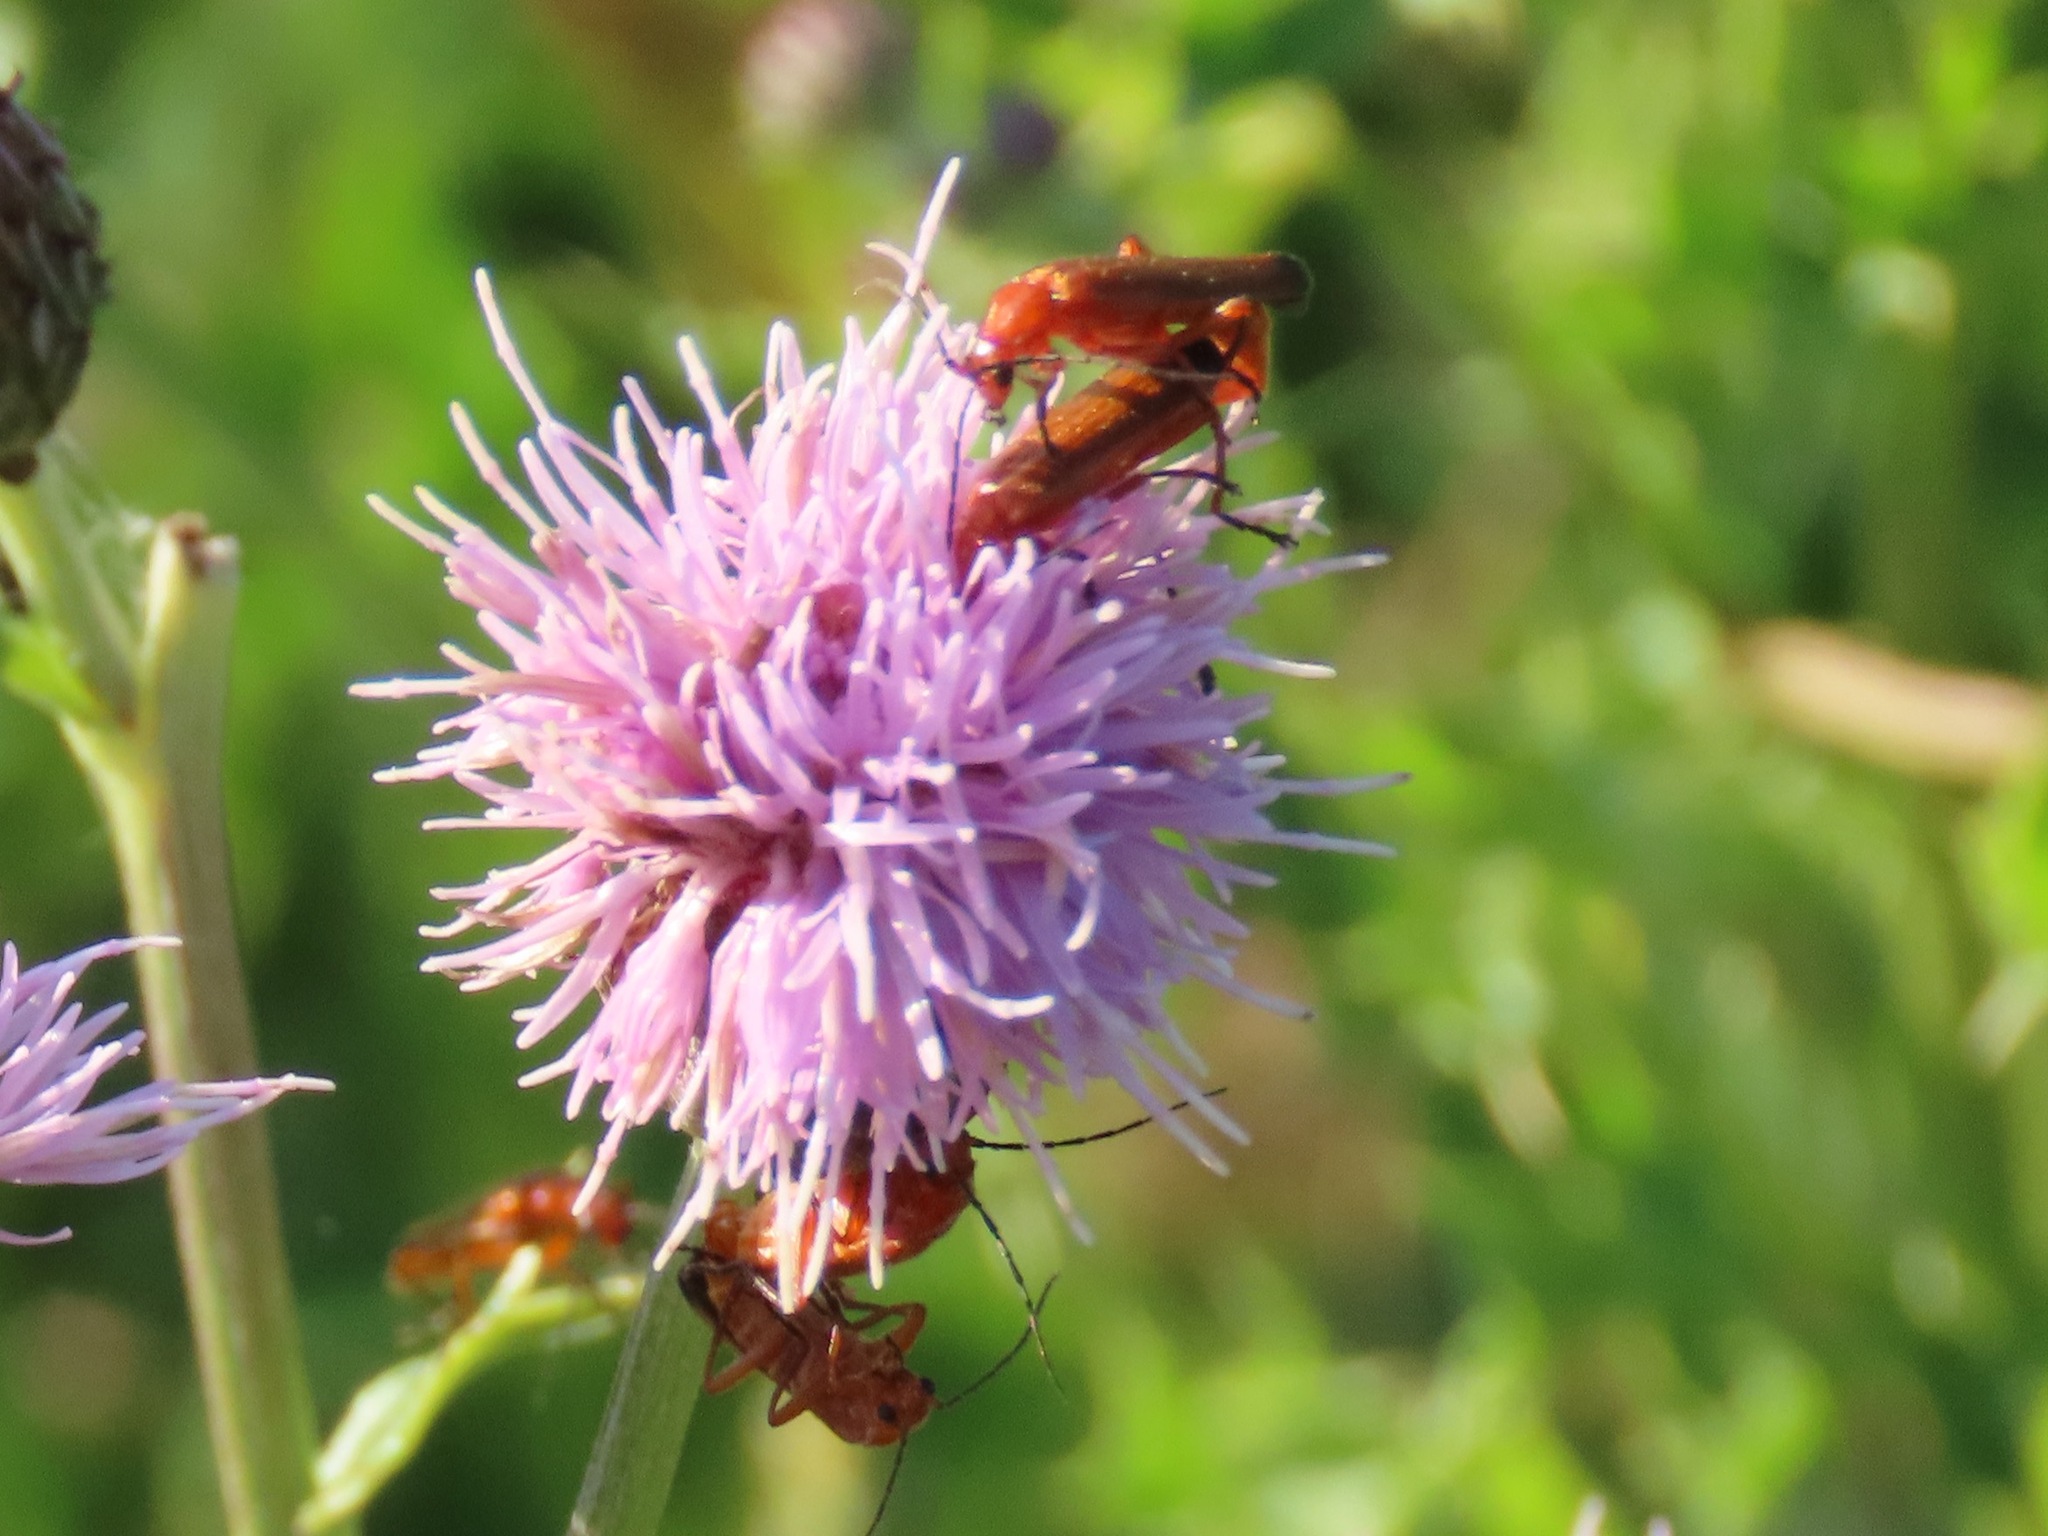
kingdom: Animalia
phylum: Arthropoda
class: Insecta
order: Coleoptera
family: Cantharidae
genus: Rhagonycha
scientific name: Rhagonycha fulva
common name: Common red soldier beetle
